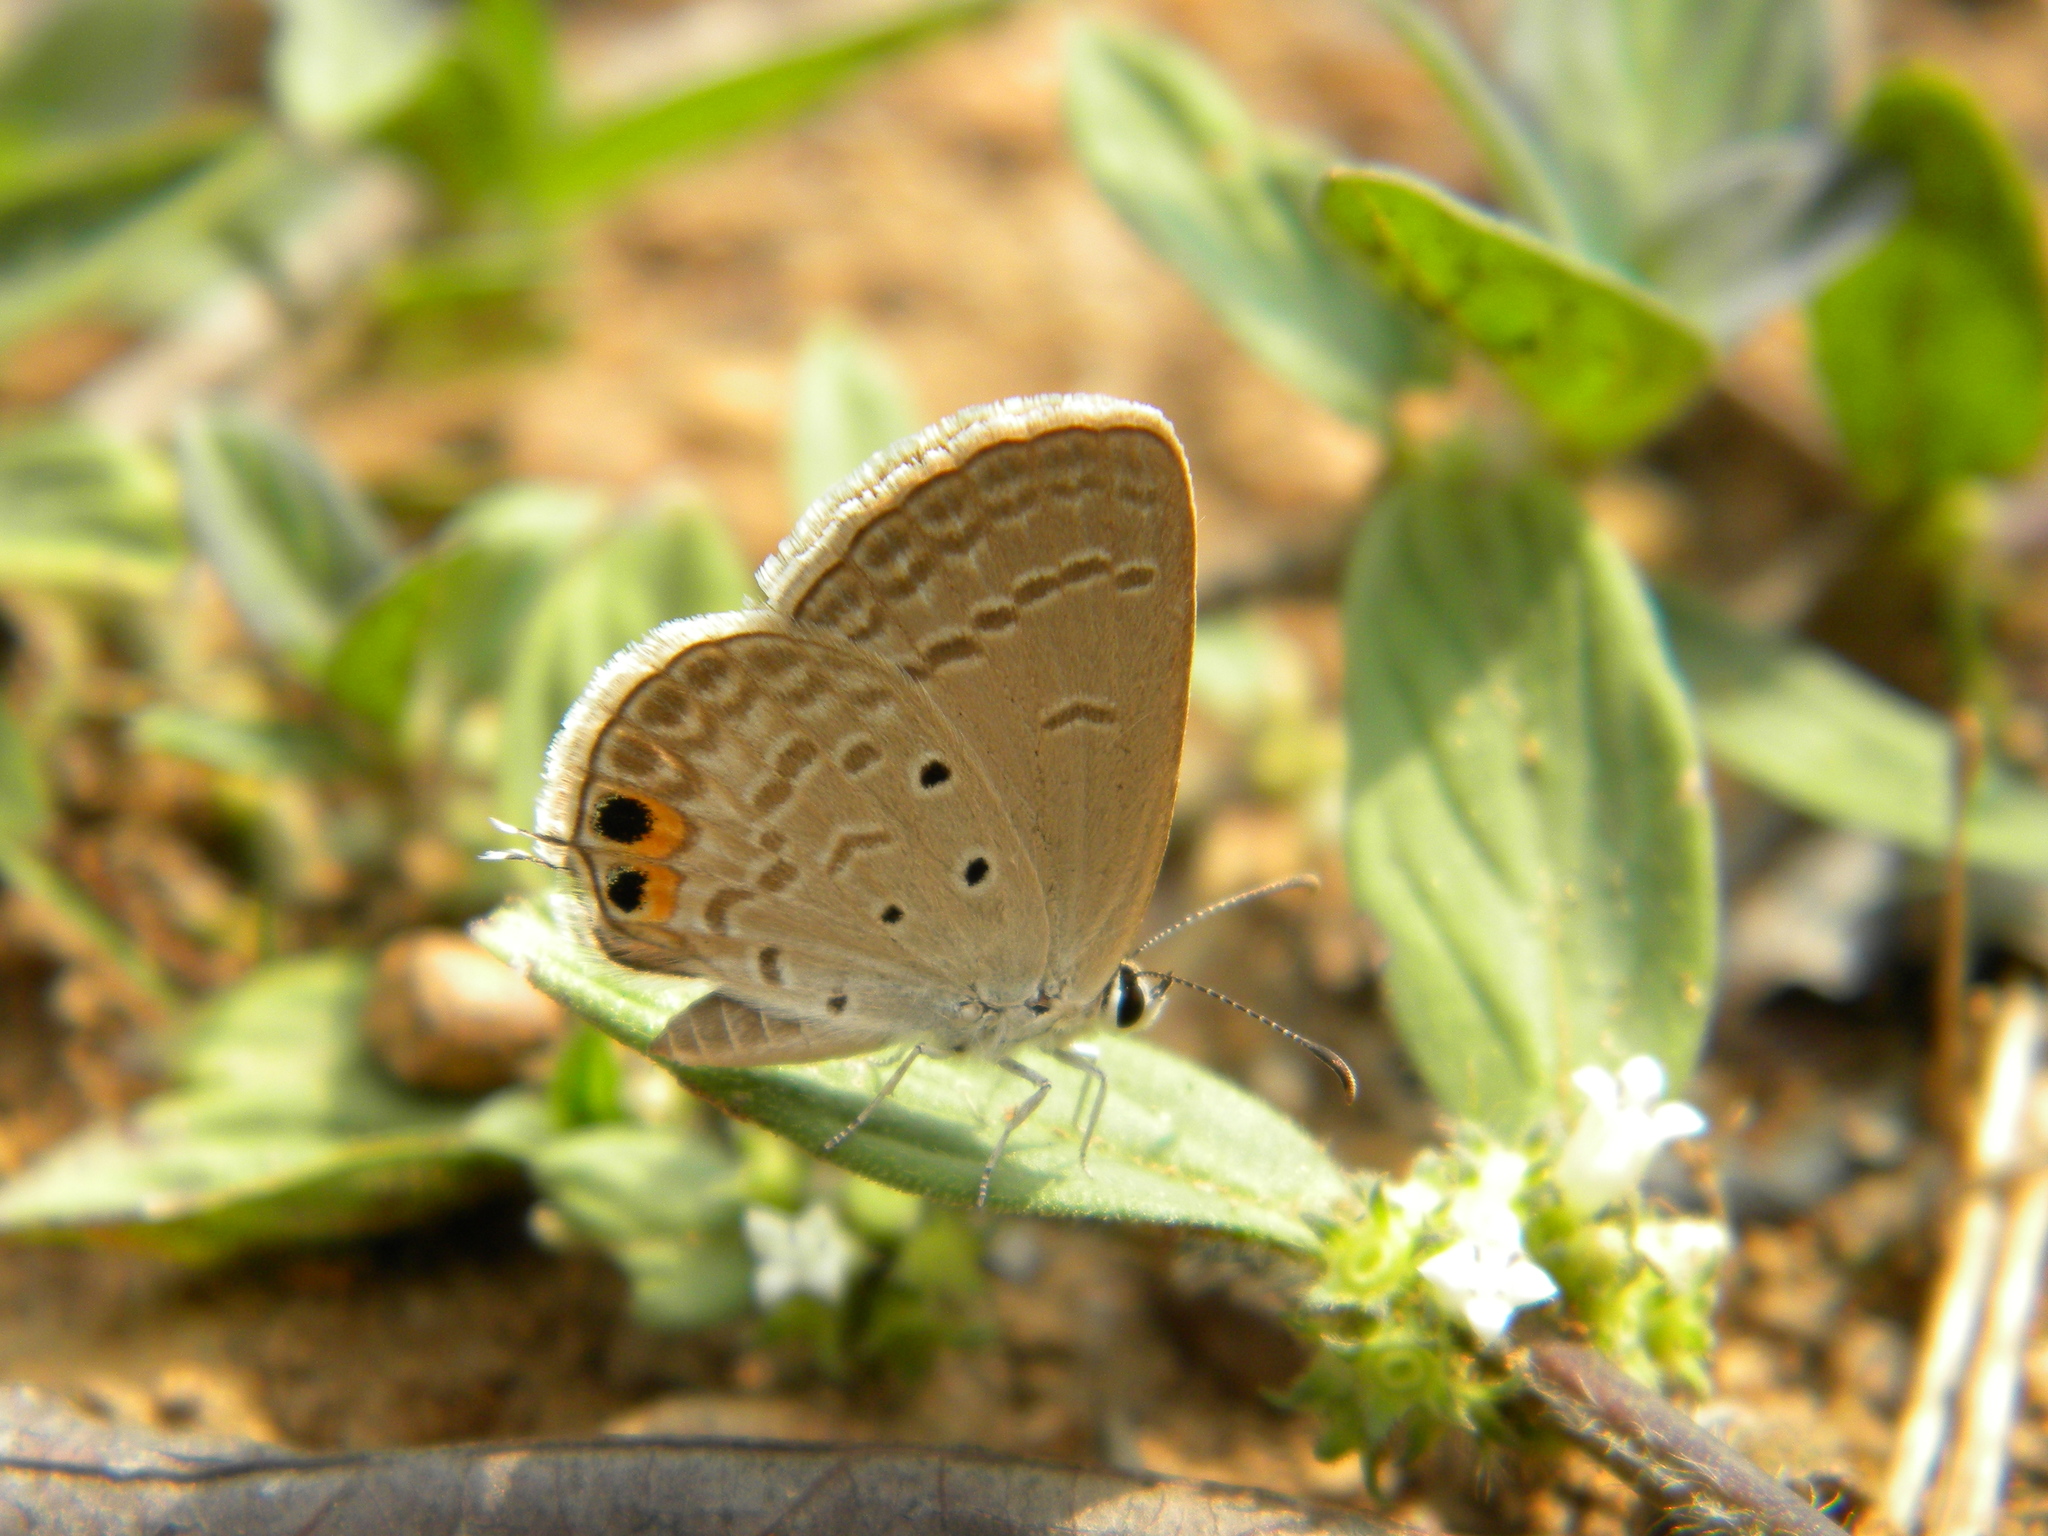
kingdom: Animalia
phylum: Arthropoda
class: Insecta
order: Lepidoptera
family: Lycaenidae
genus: Euchrysops
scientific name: Euchrysops cnejus
